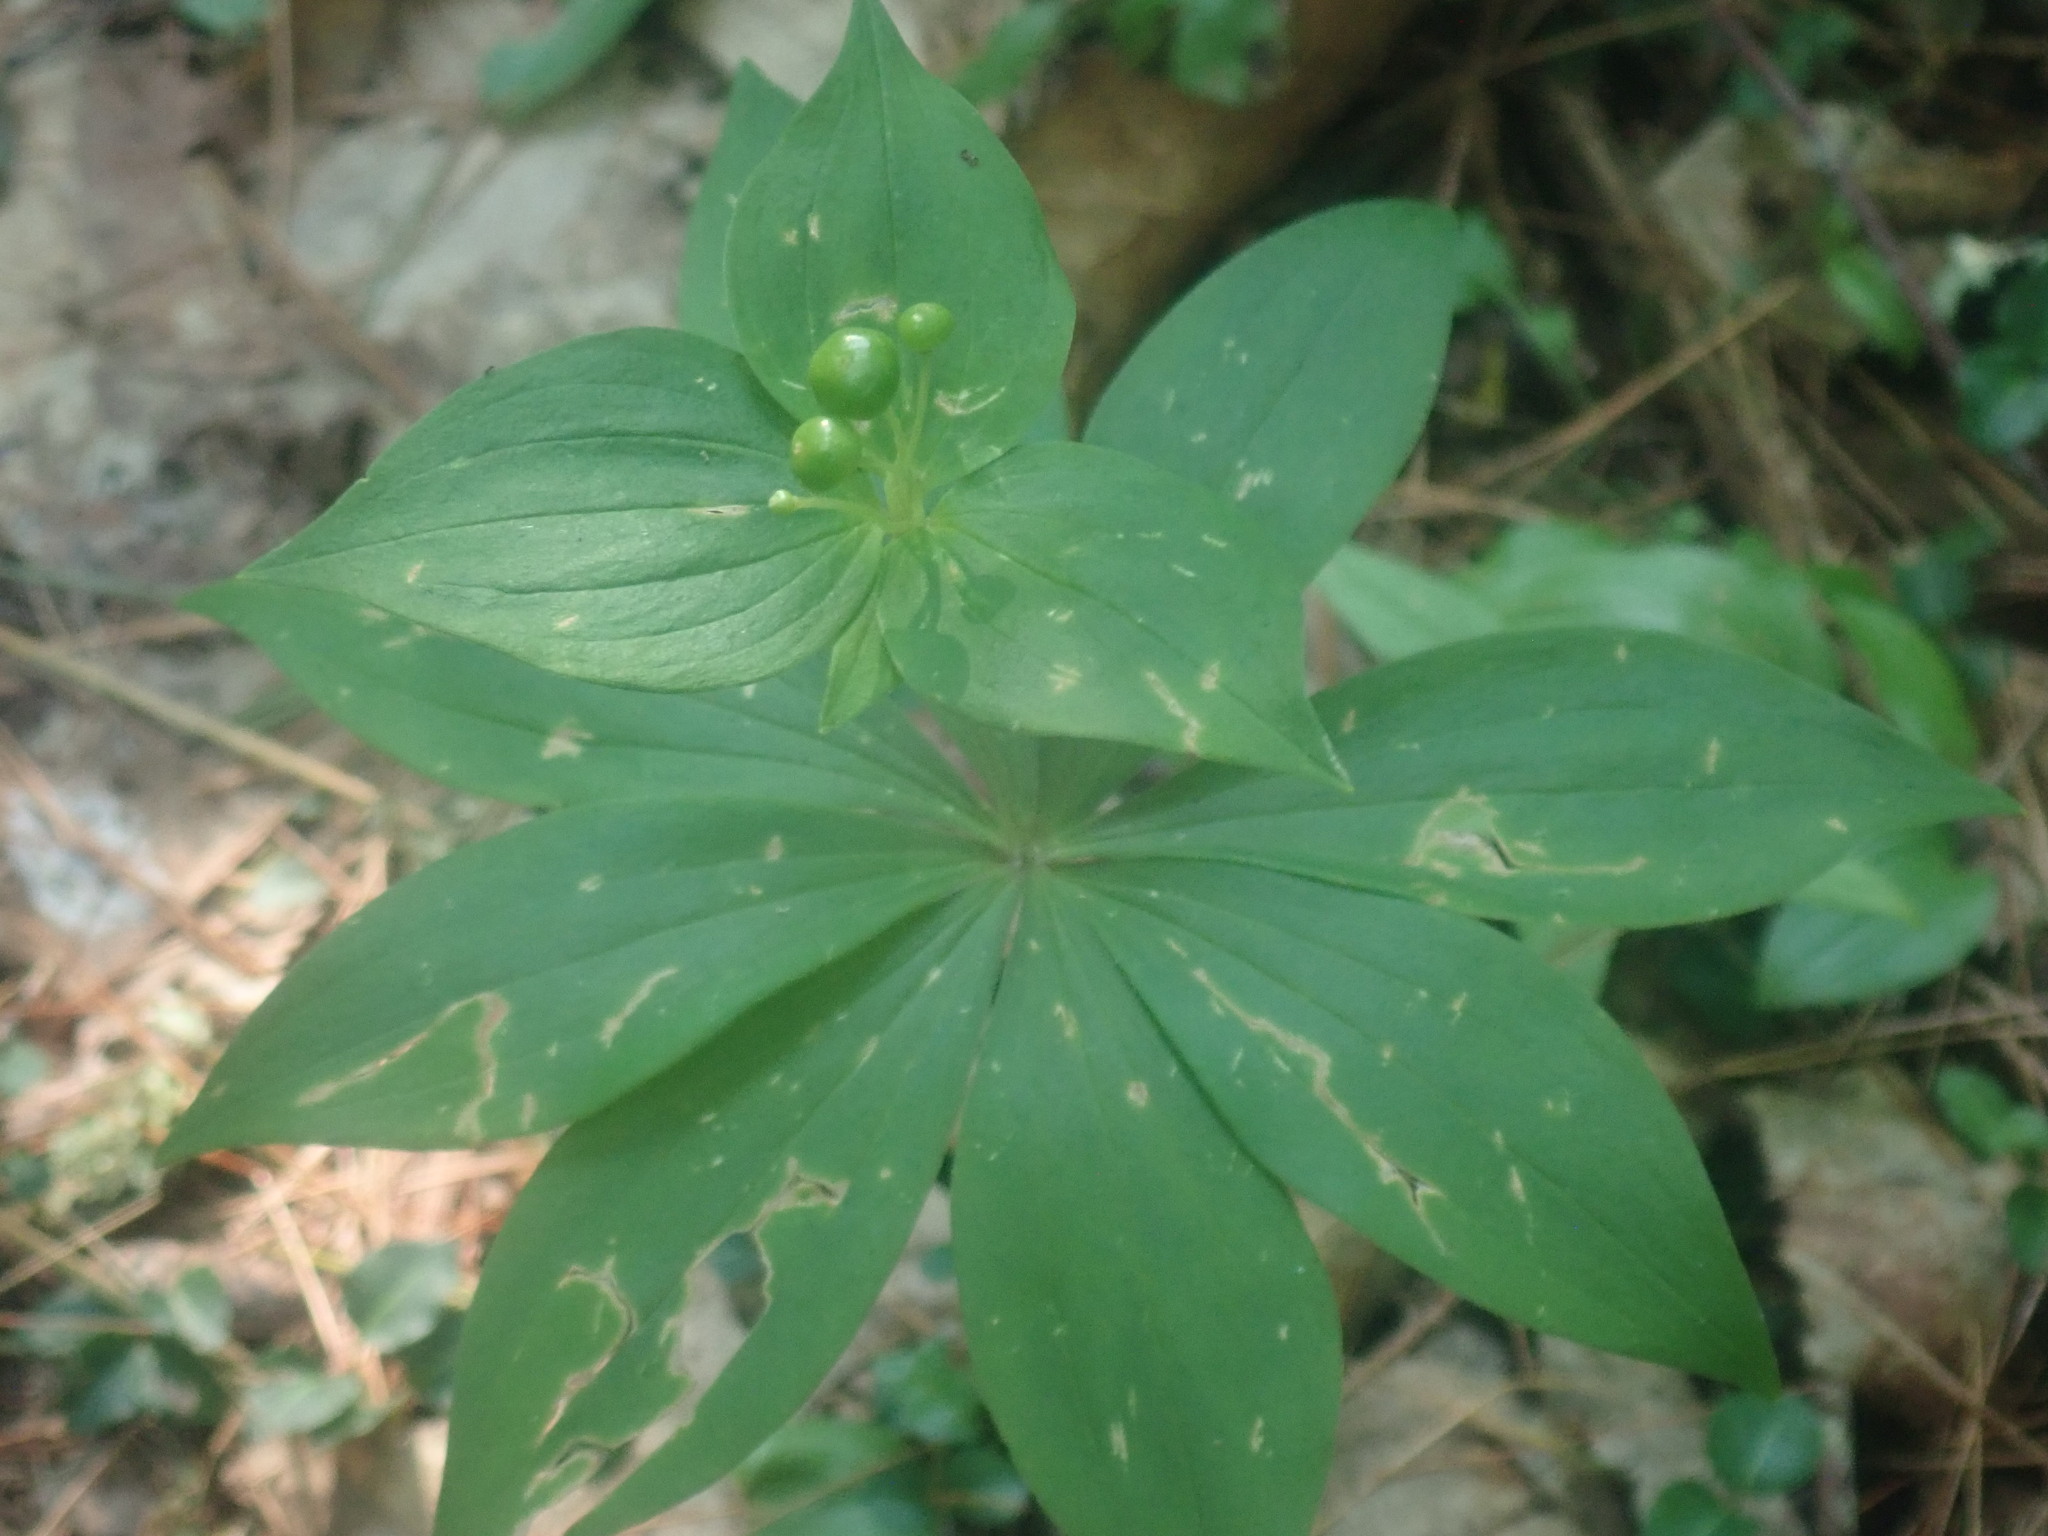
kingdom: Plantae
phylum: Tracheophyta
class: Liliopsida
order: Liliales
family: Liliaceae
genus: Medeola
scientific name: Medeola virginiana
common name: Indian cucumber-root
